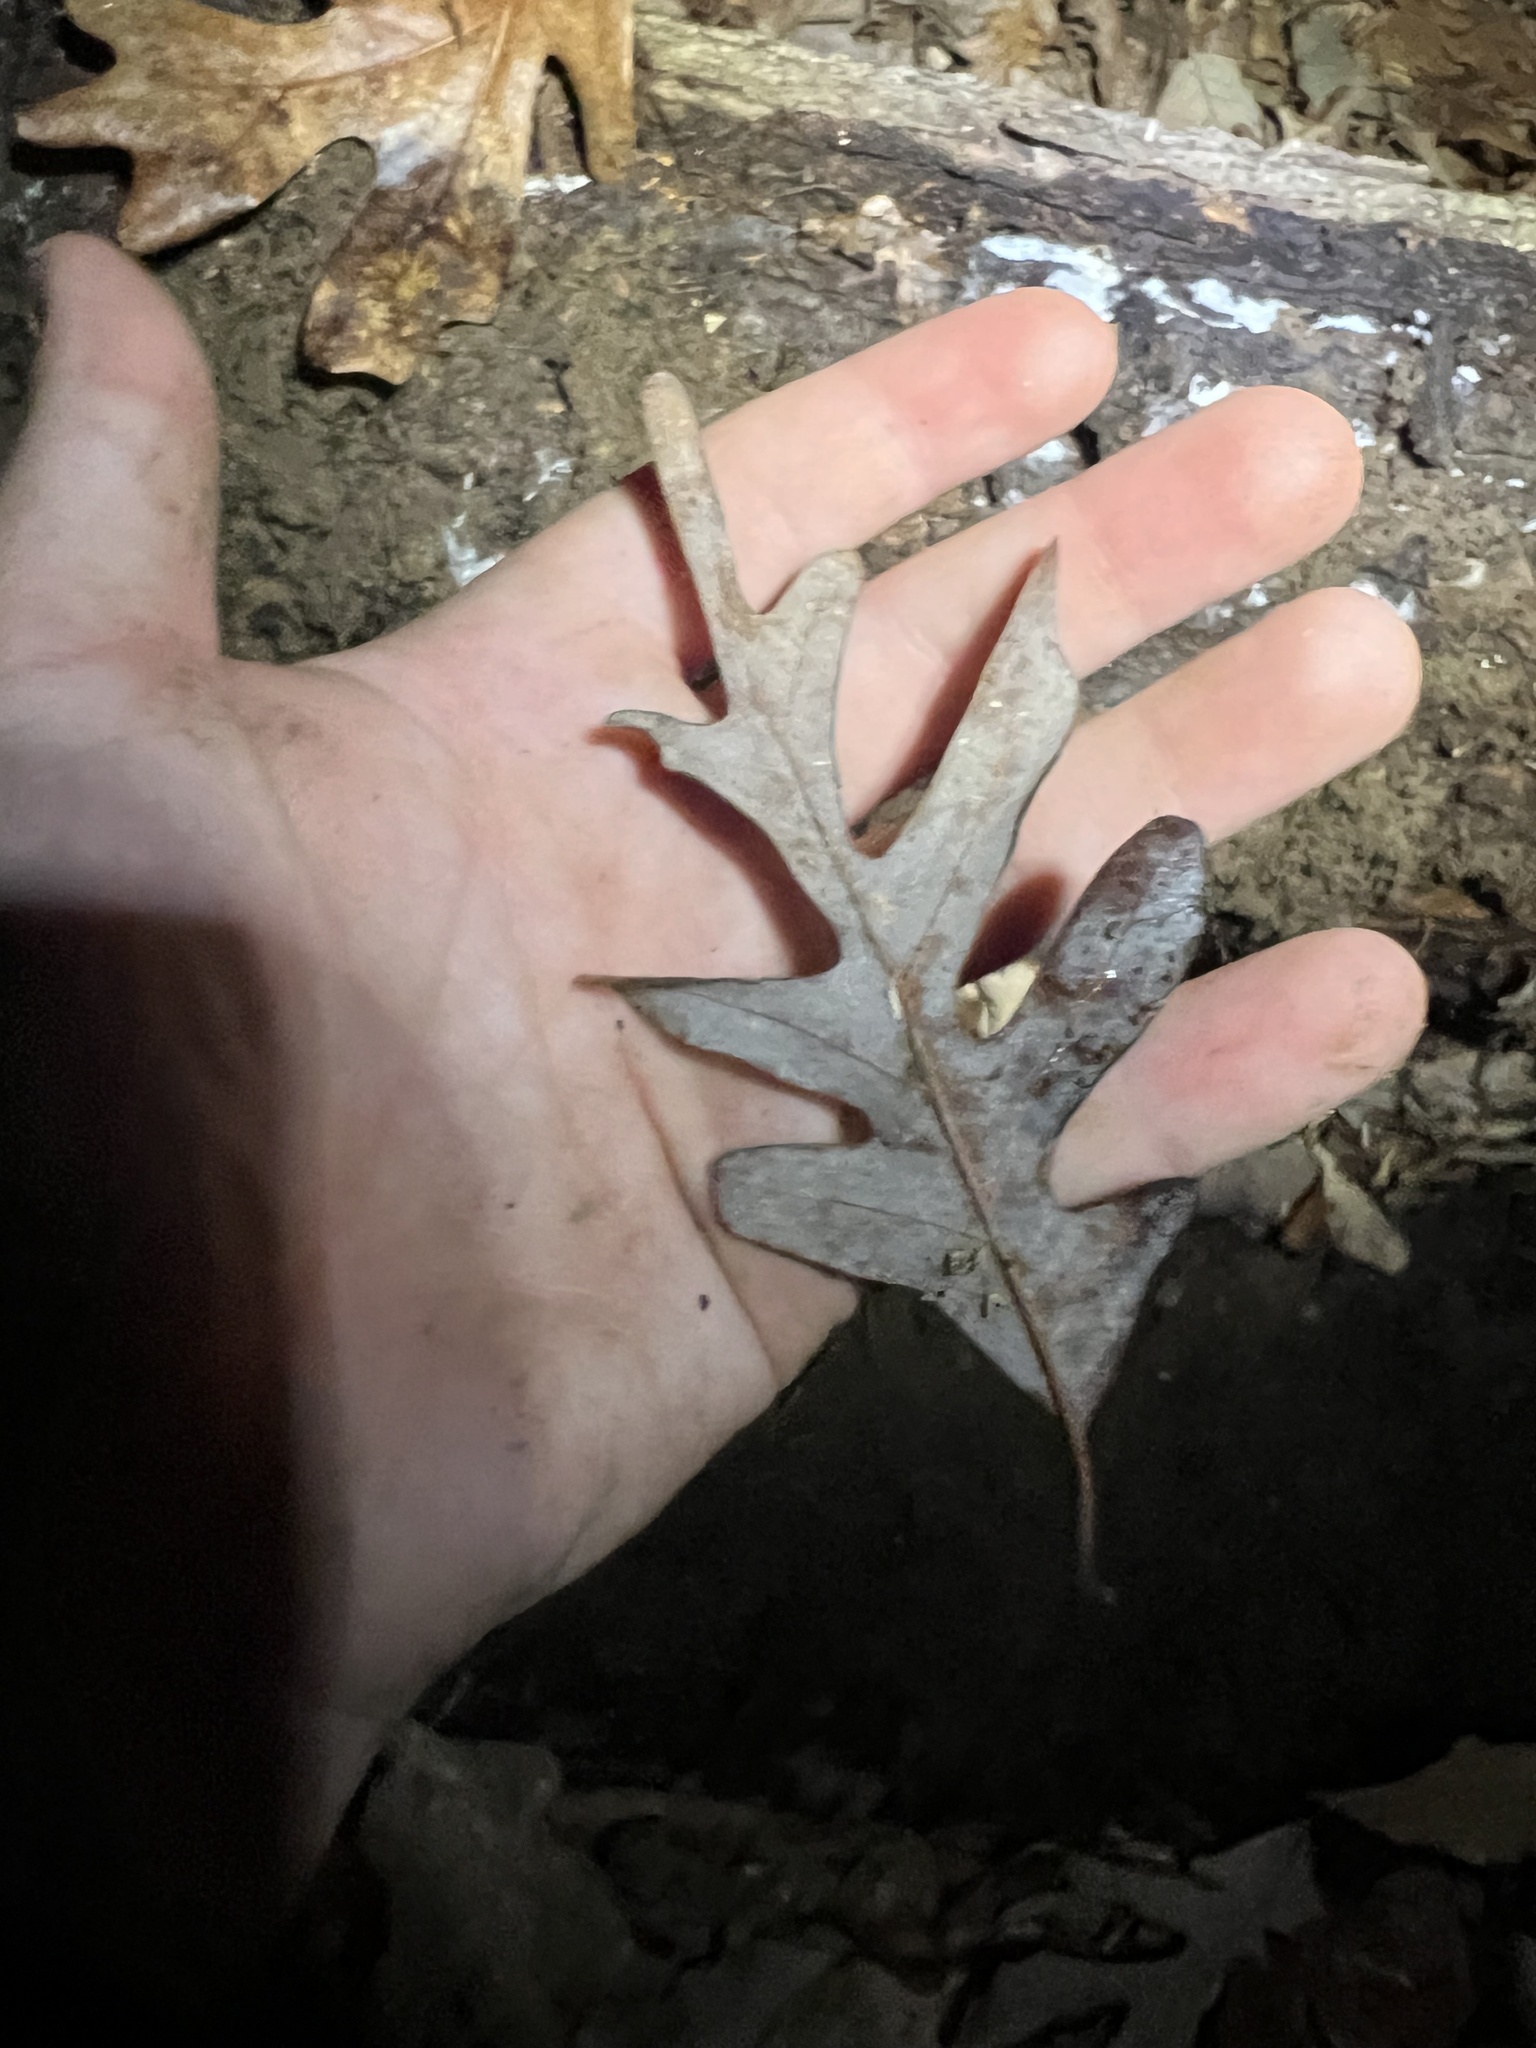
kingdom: Plantae
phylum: Tracheophyta
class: Magnoliopsida
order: Fagales
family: Fagaceae
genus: Quercus
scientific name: Quercus alba
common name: White oak
